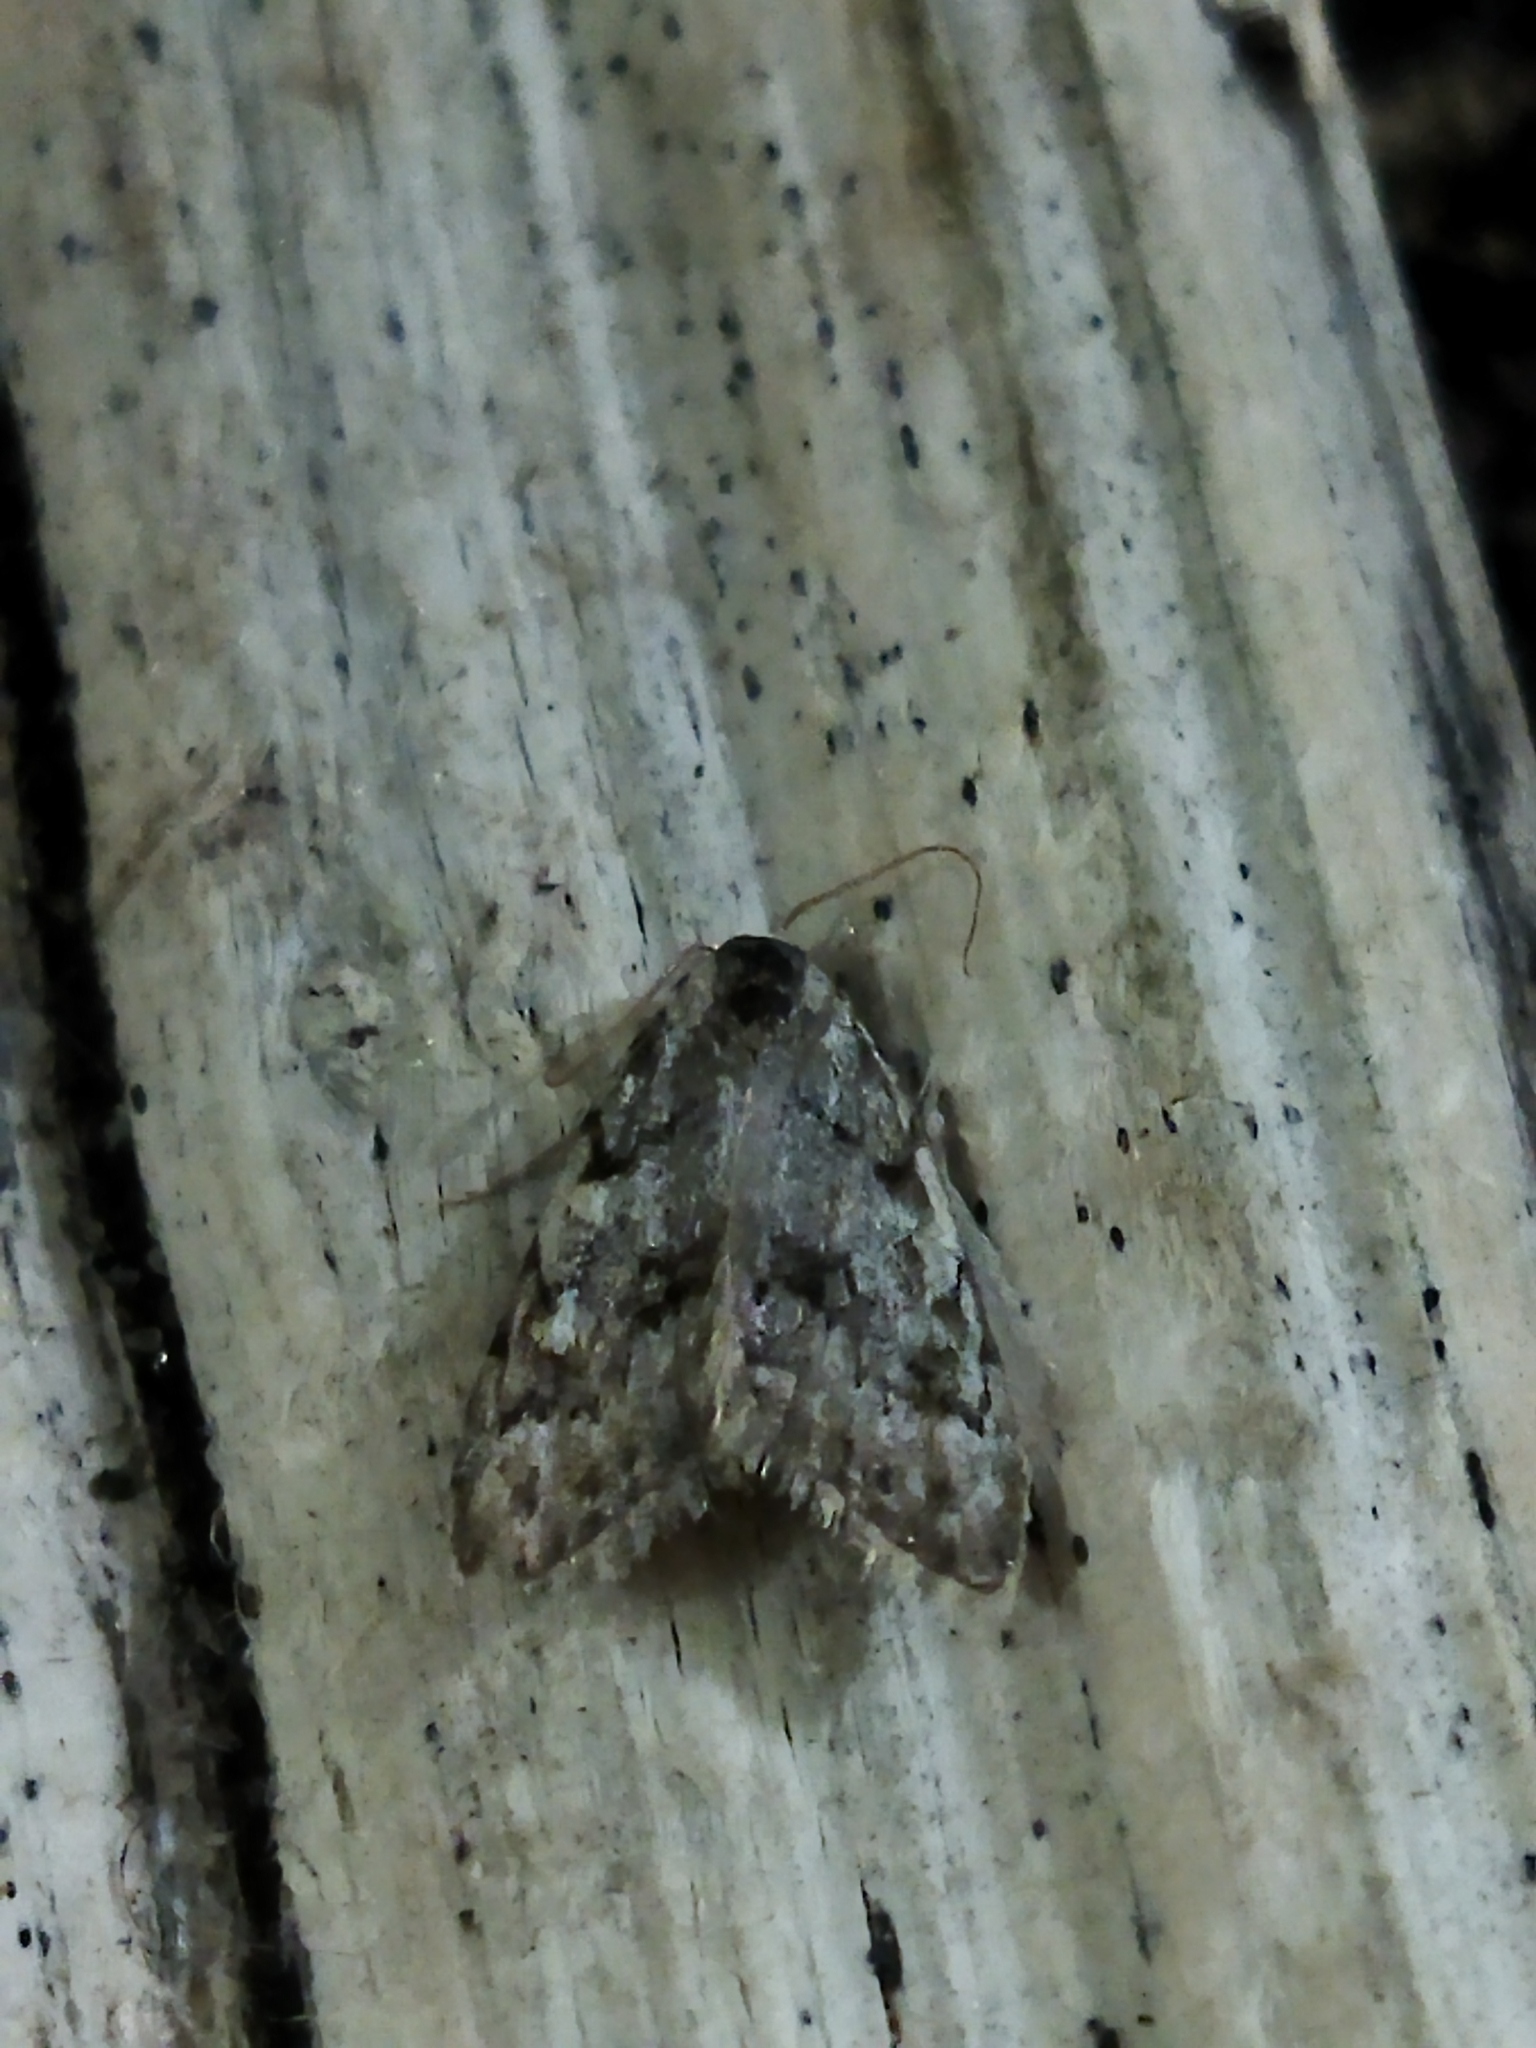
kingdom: Animalia
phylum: Arthropoda
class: Insecta
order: Lepidoptera
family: Nolidae
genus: Nola
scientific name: Nola confusalis
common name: Least black arches
